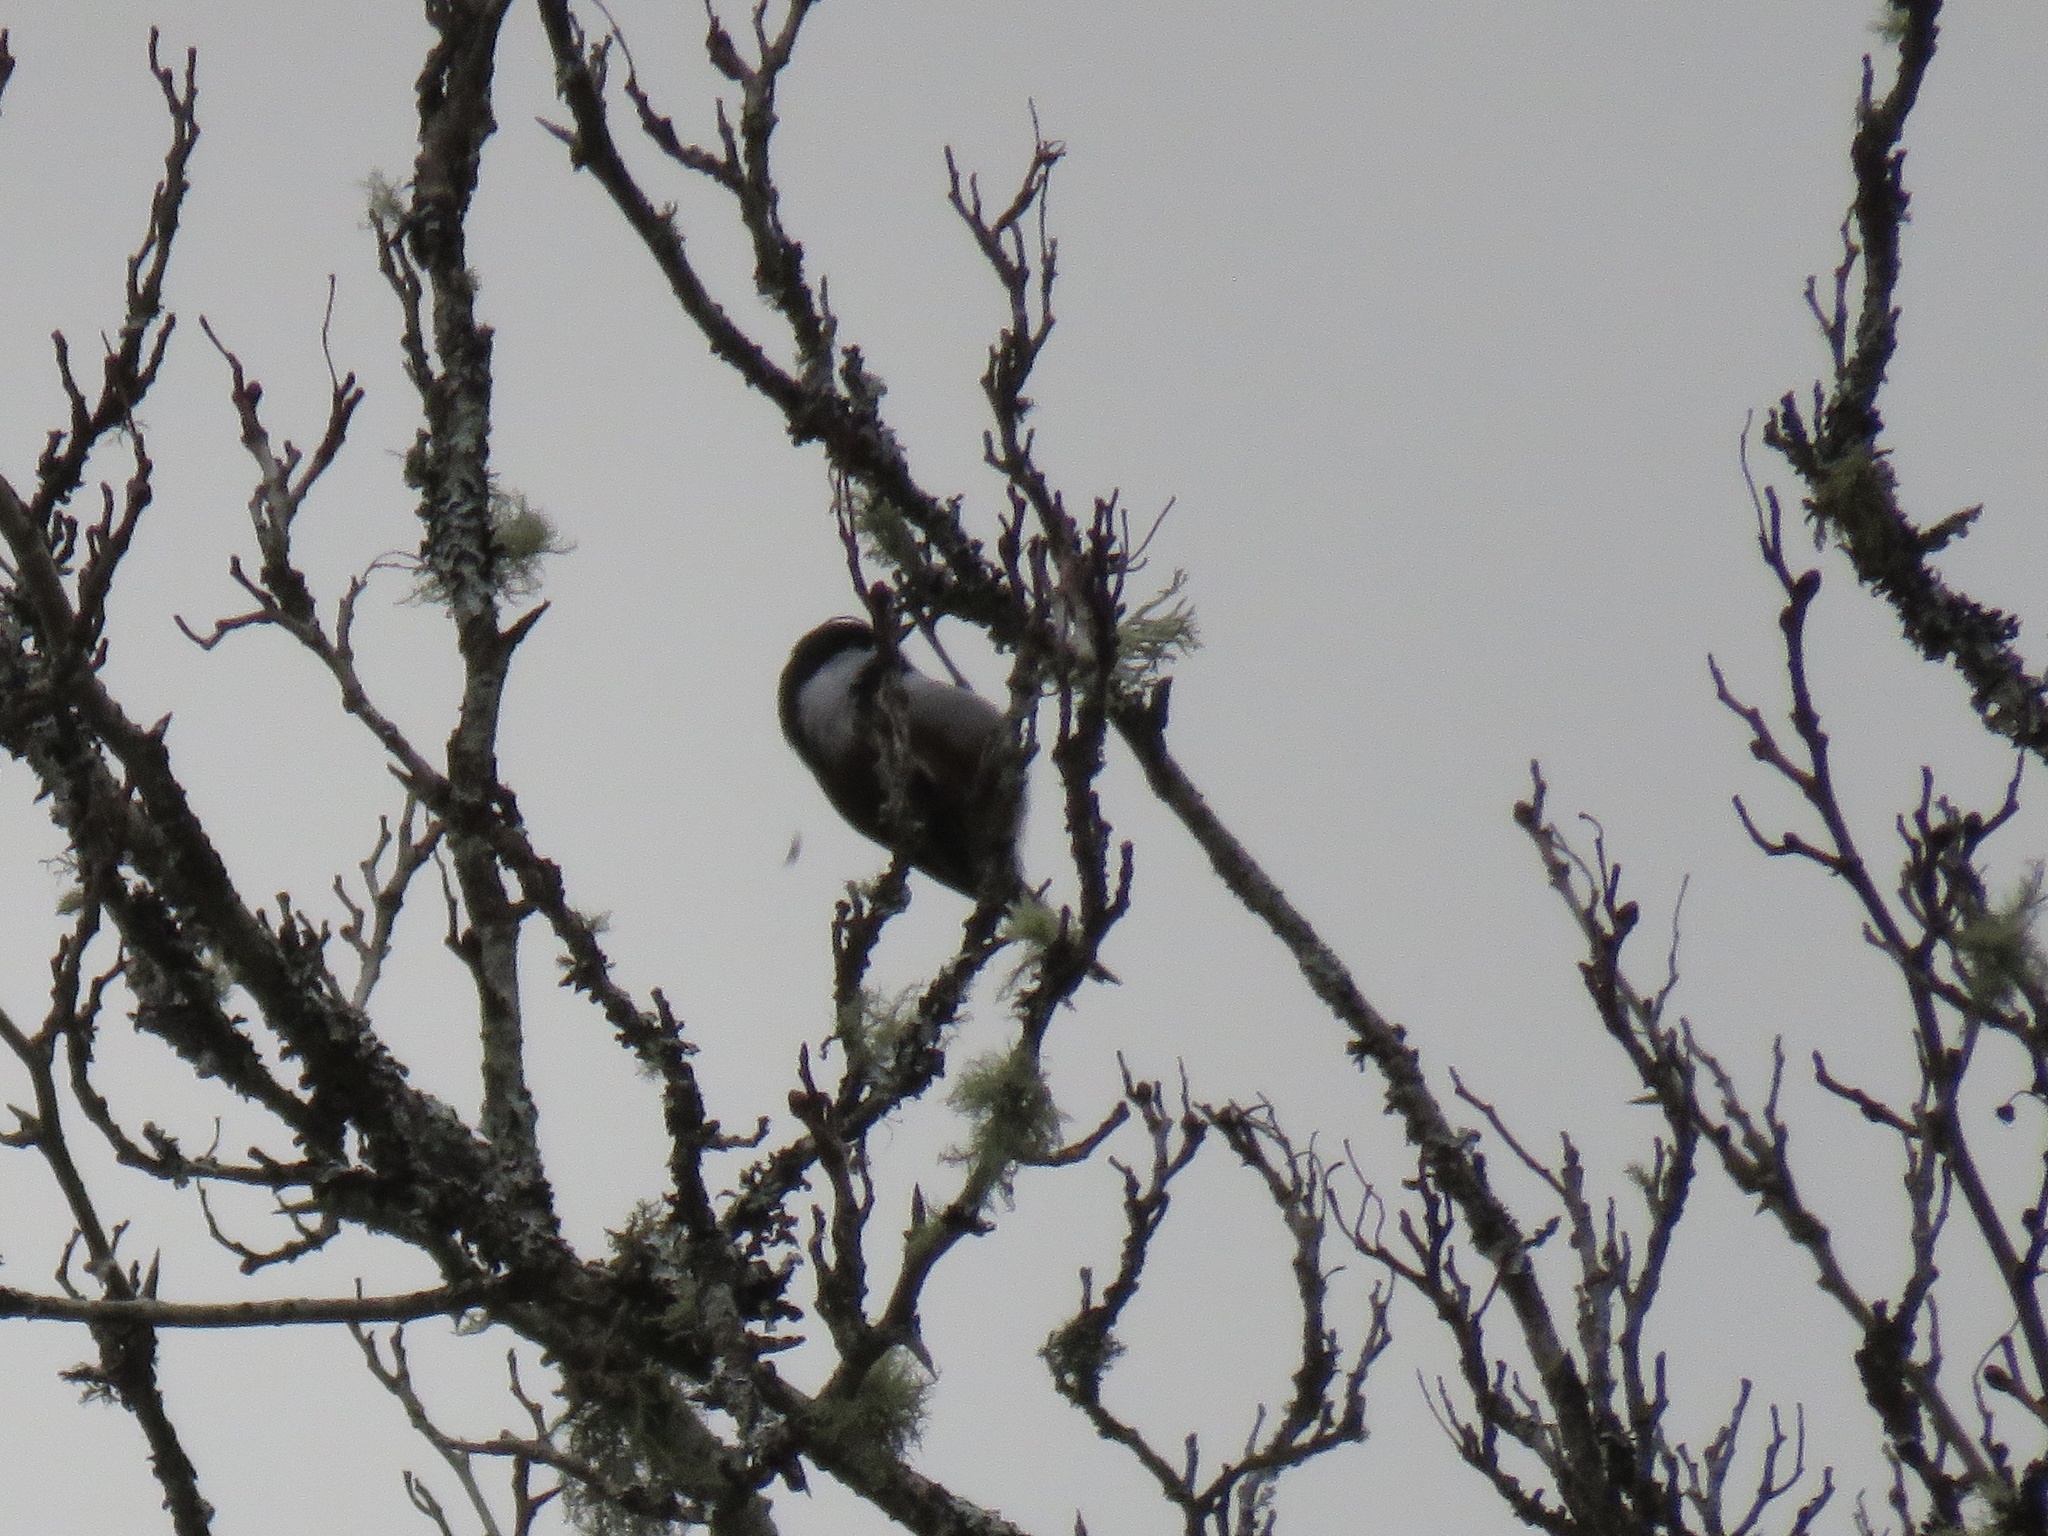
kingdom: Animalia
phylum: Chordata
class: Aves
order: Passeriformes
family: Paridae
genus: Poecile
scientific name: Poecile rufescens
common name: Chestnut-backed chickadee
